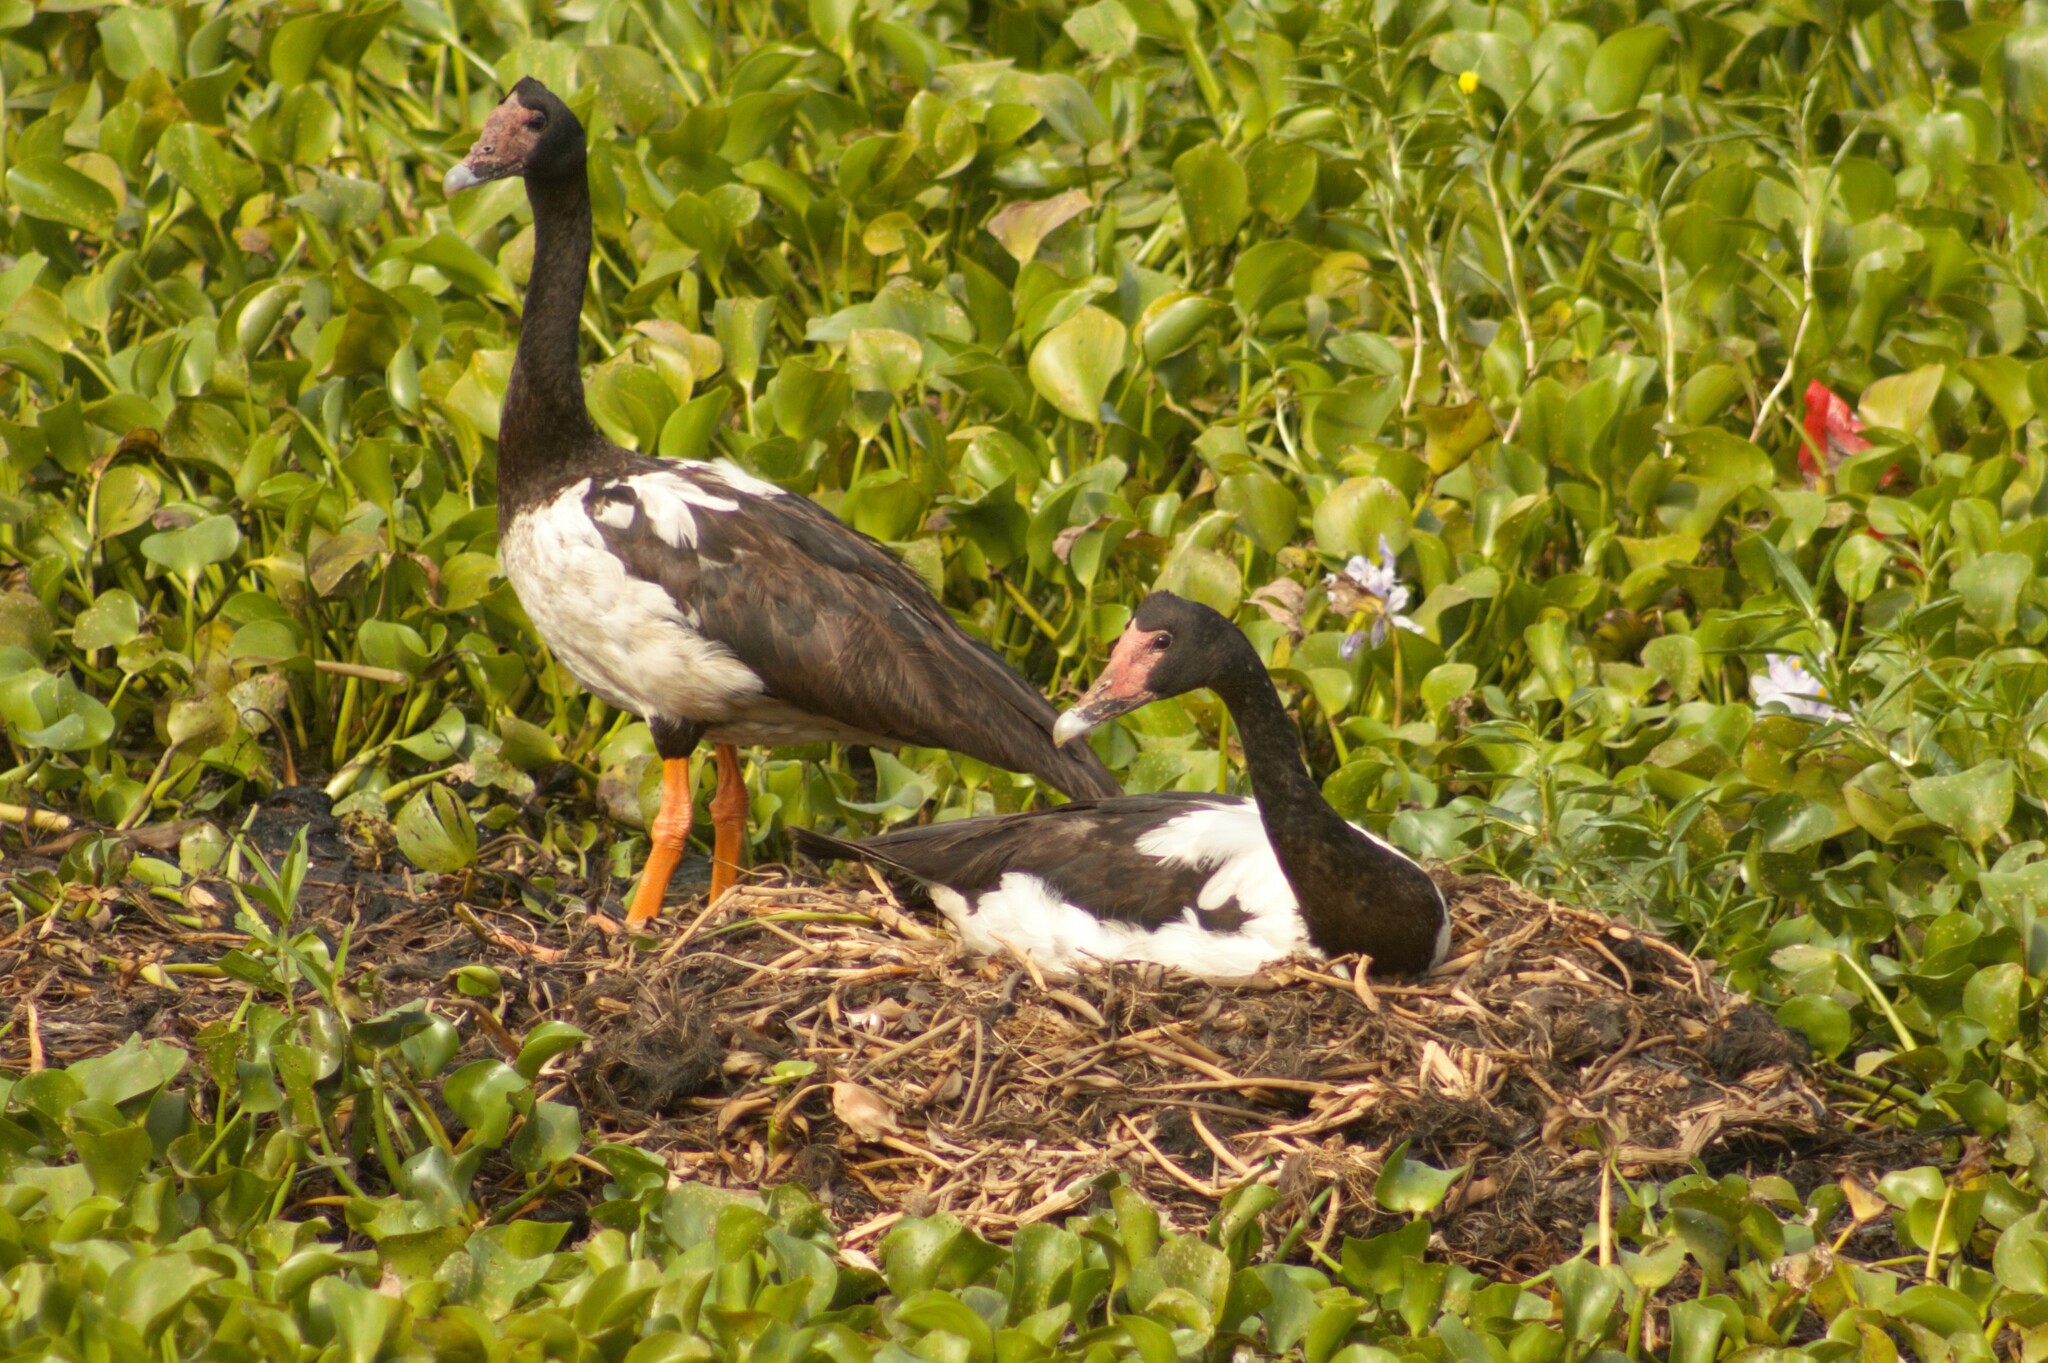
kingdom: Animalia
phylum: Chordata
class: Aves
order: Anseriformes
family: Anseranatidae
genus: Anseranas
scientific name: Anseranas semipalmata
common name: Magpie goose
